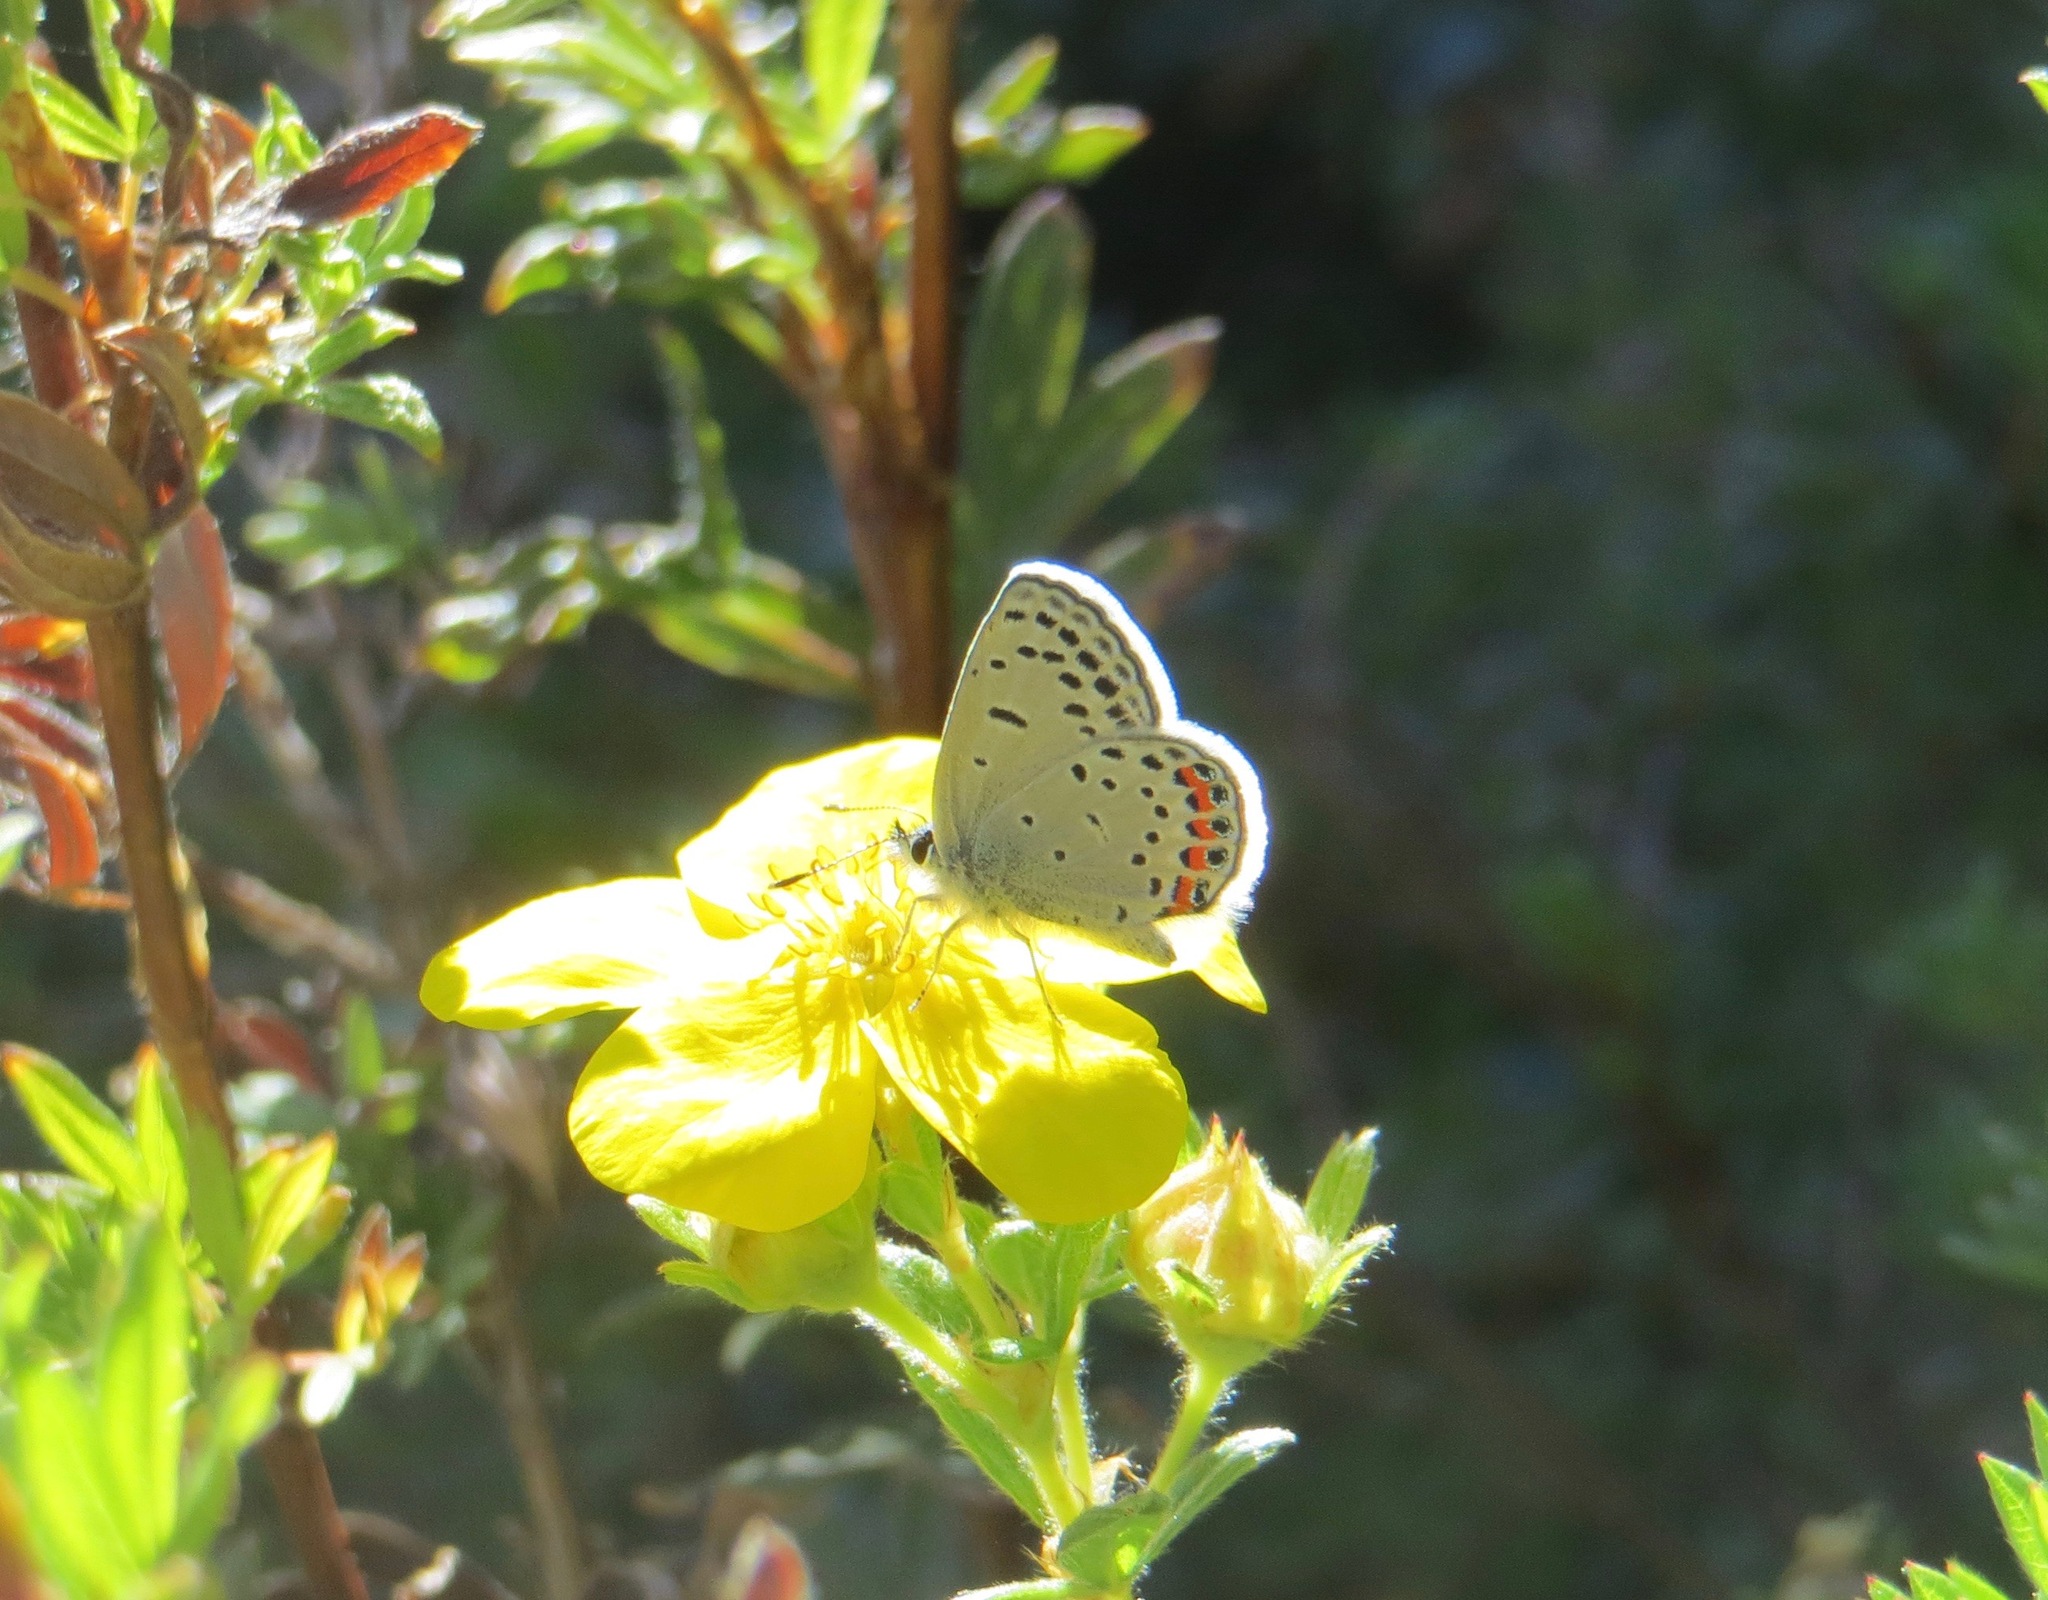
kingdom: Animalia
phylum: Arthropoda
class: Insecta
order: Lepidoptera
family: Lycaenidae
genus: Icaricia
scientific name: Icaricia acmon
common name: Acmon blue
